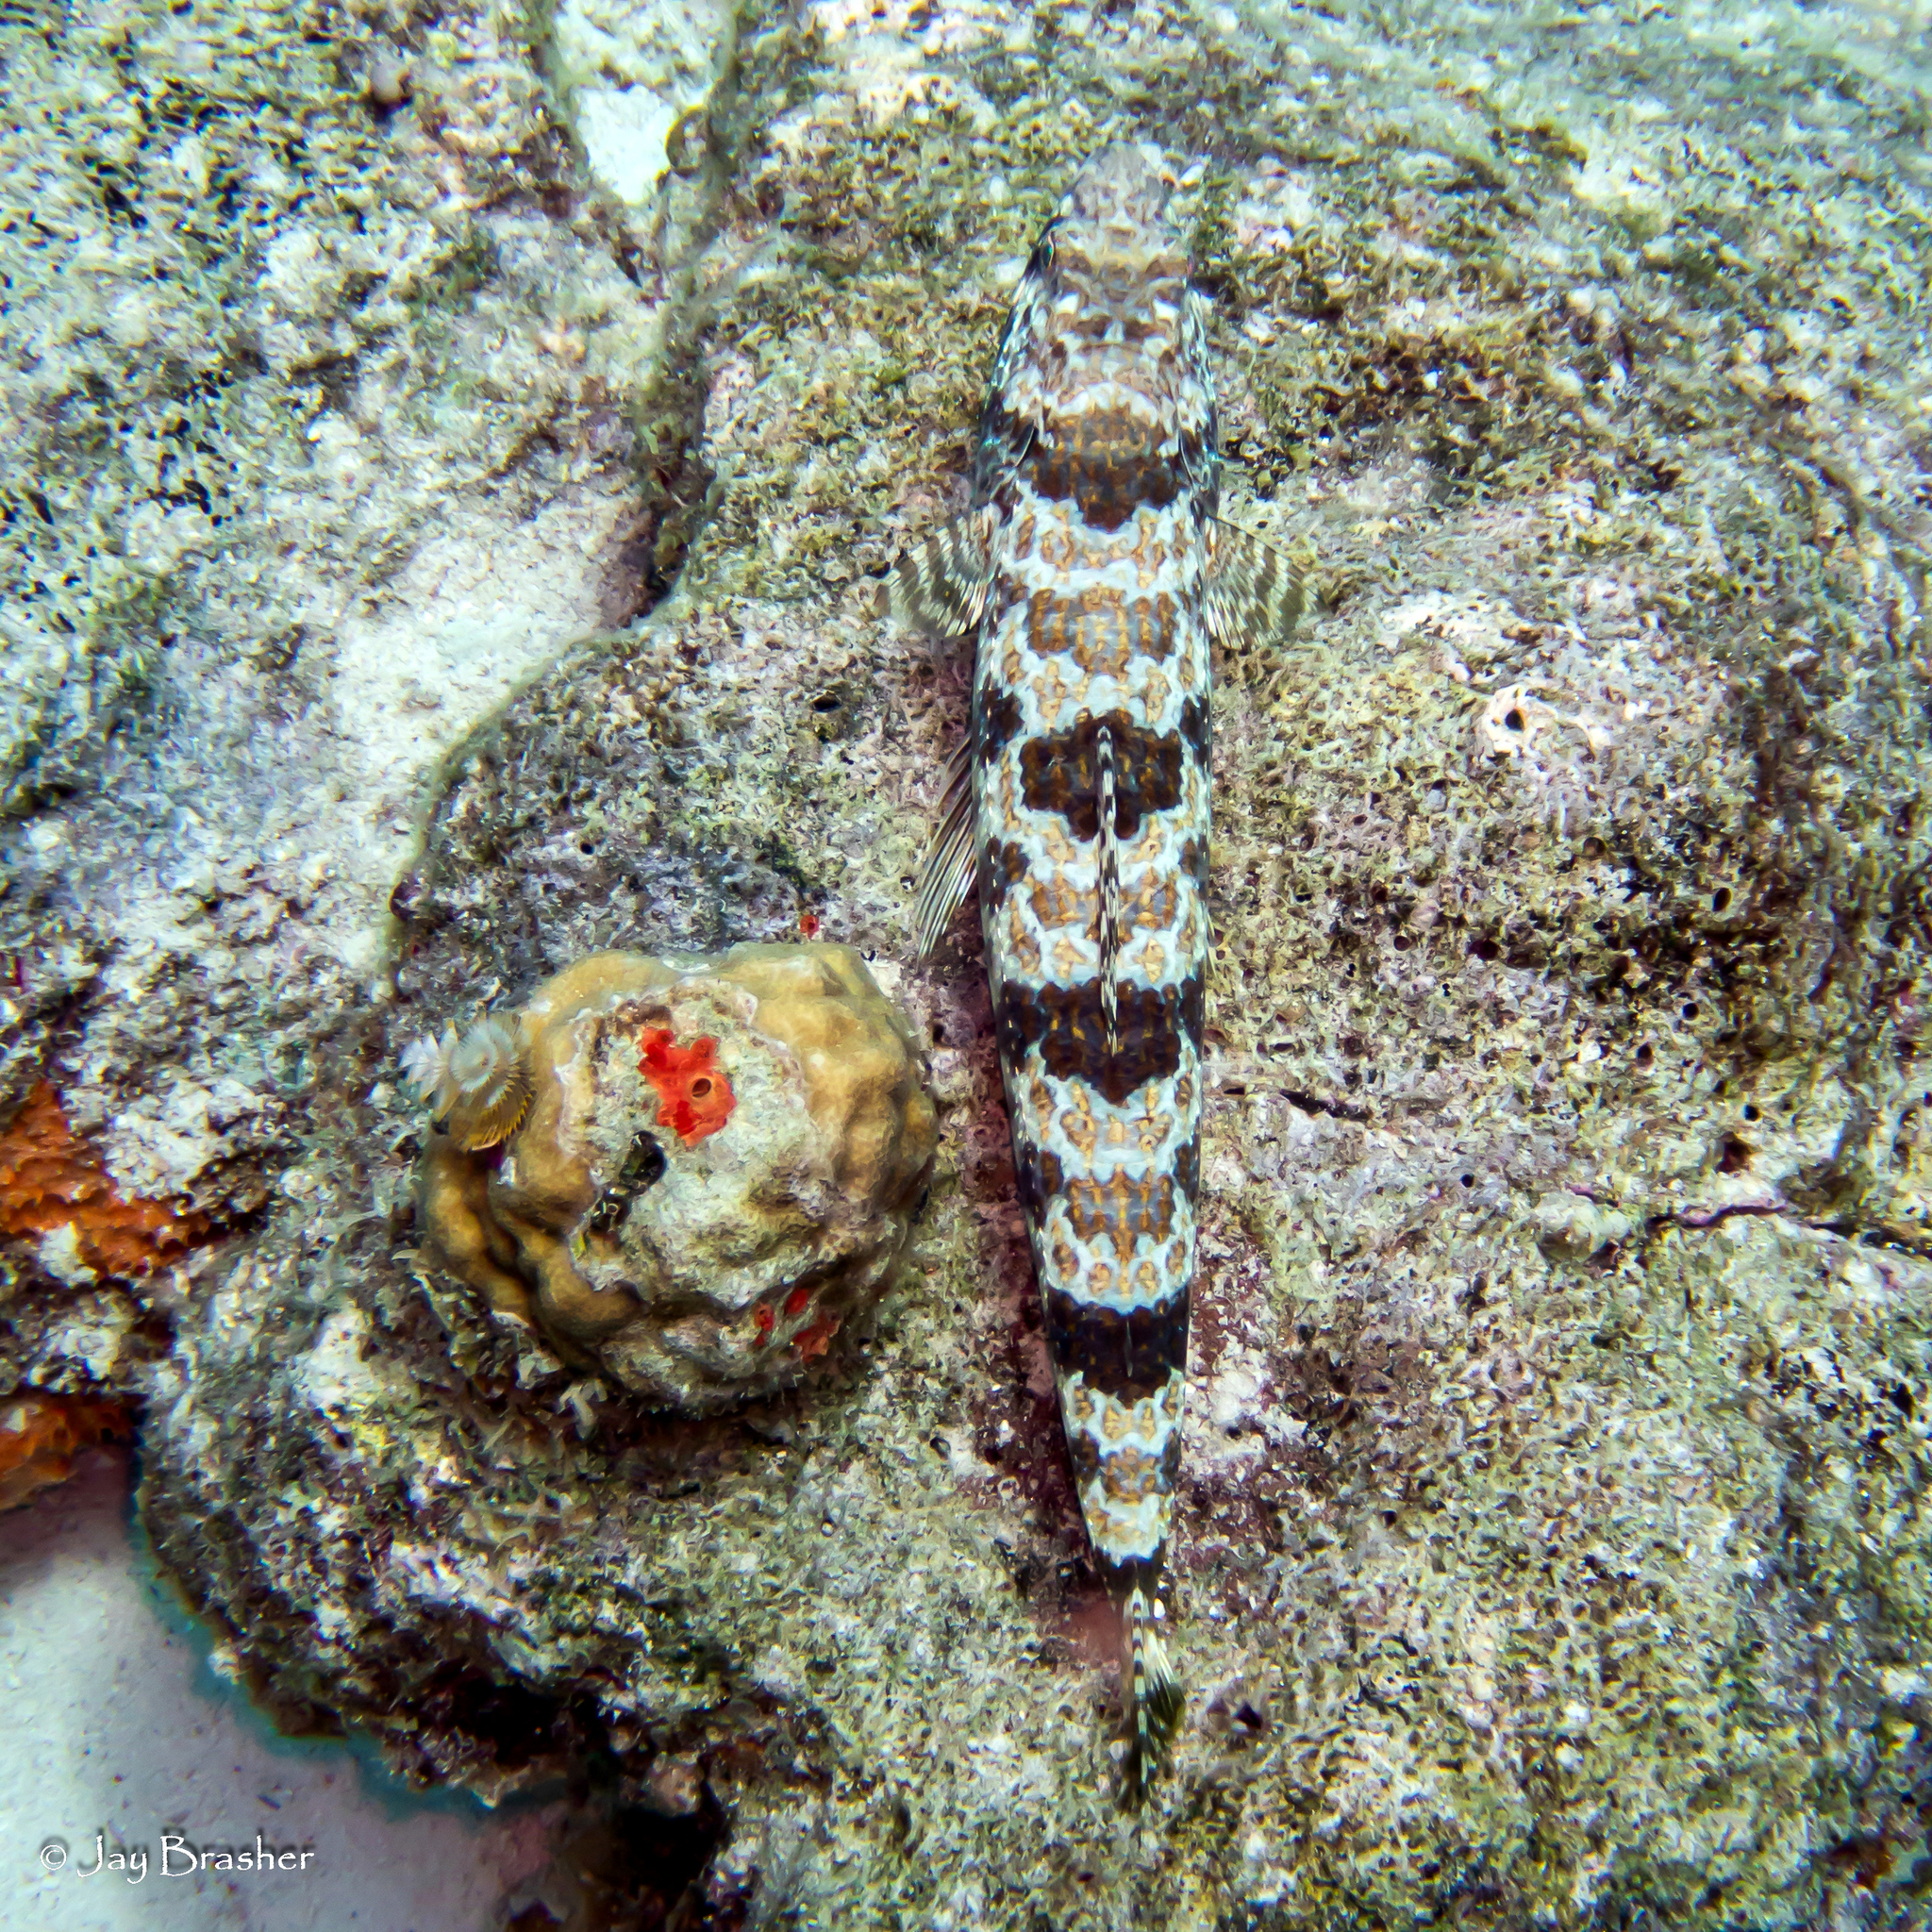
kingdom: Animalia
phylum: Porifera
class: Demospongiae
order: Clionaida
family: Clionaidae
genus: Cliothosa
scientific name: Cliothosa delitrix
